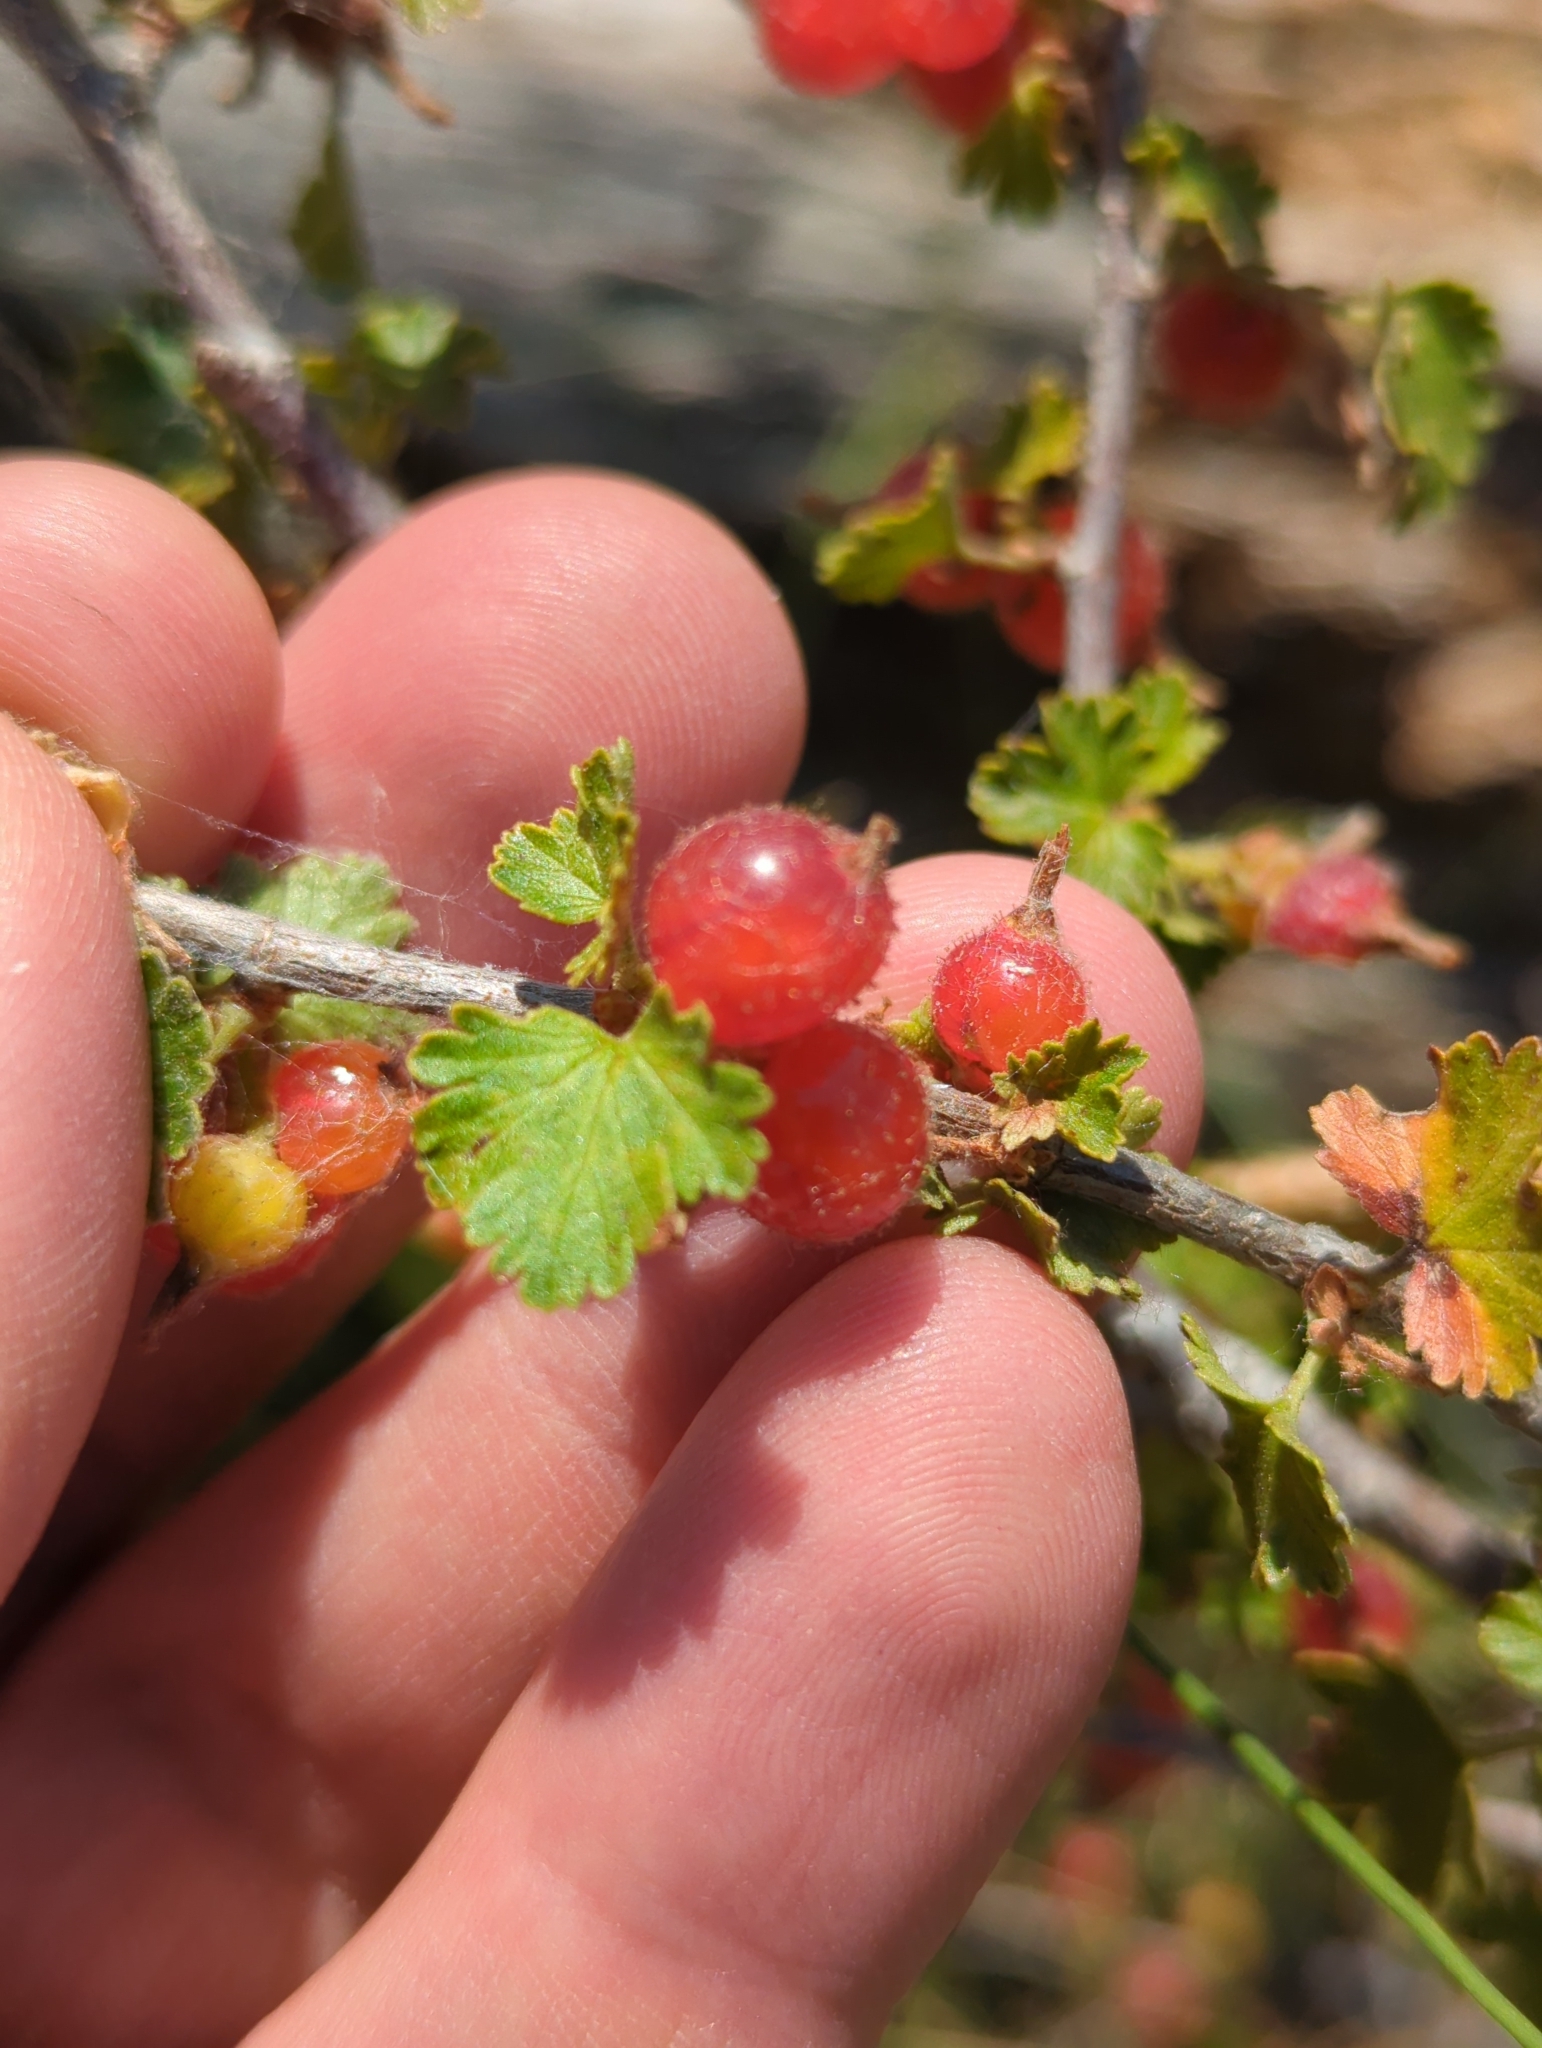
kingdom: Plantae
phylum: Tracheophyta
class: Magnoliopsida
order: Saxifragales
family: Grossulariaceae
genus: Ribes
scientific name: Ribes cereum
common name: Wax currant
